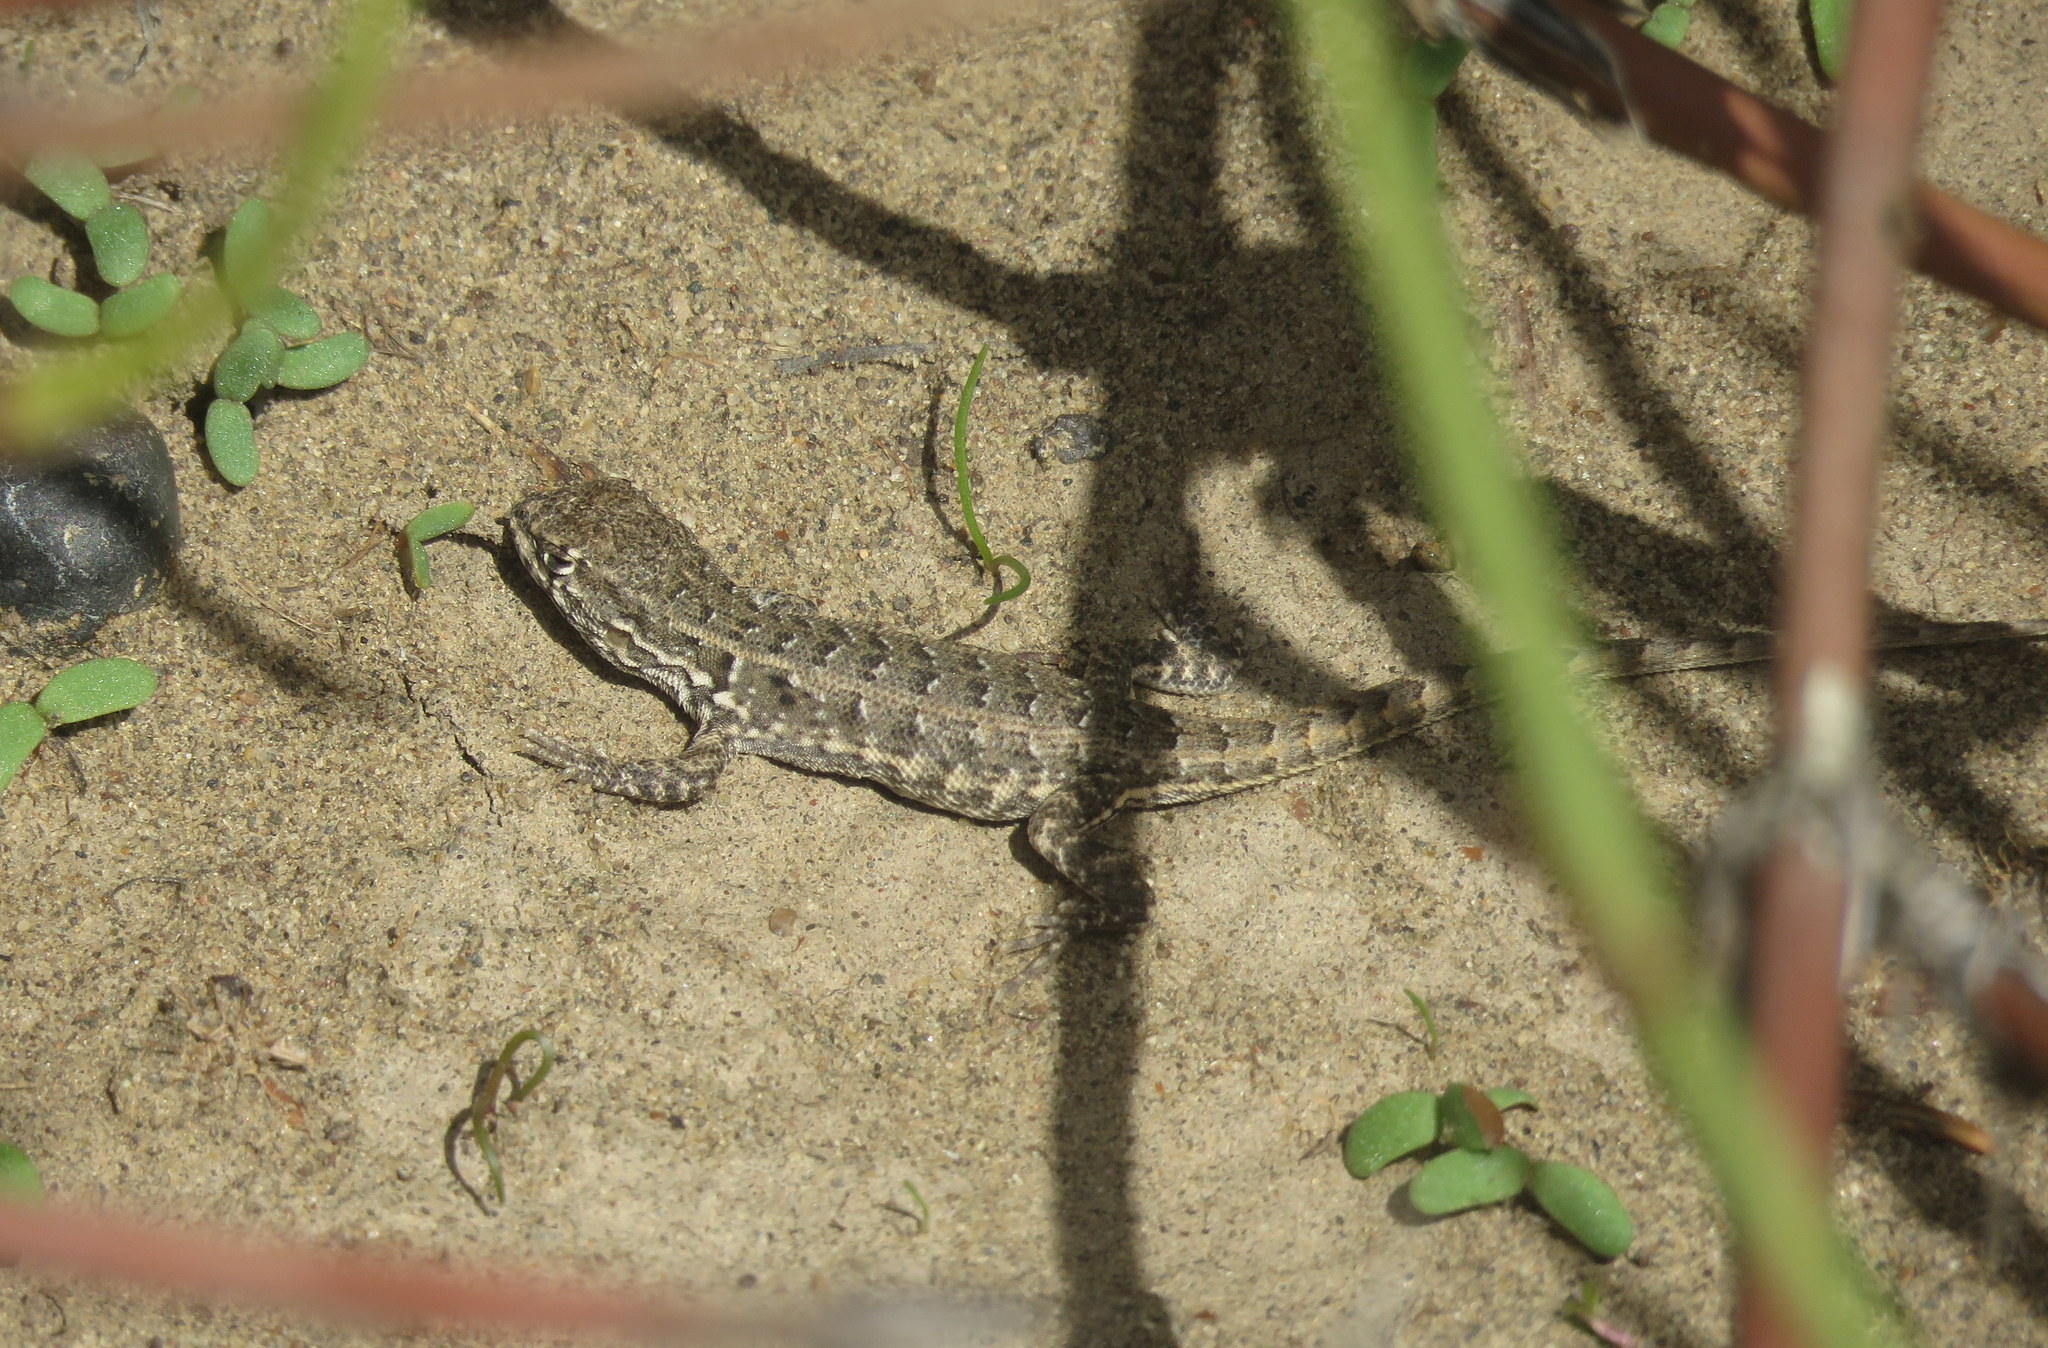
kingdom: Animalia
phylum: Chordata
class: Squamata
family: Liolaemidae
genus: Liolaemus
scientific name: Liolaemus darwinii
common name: Darwin's tree iguana
